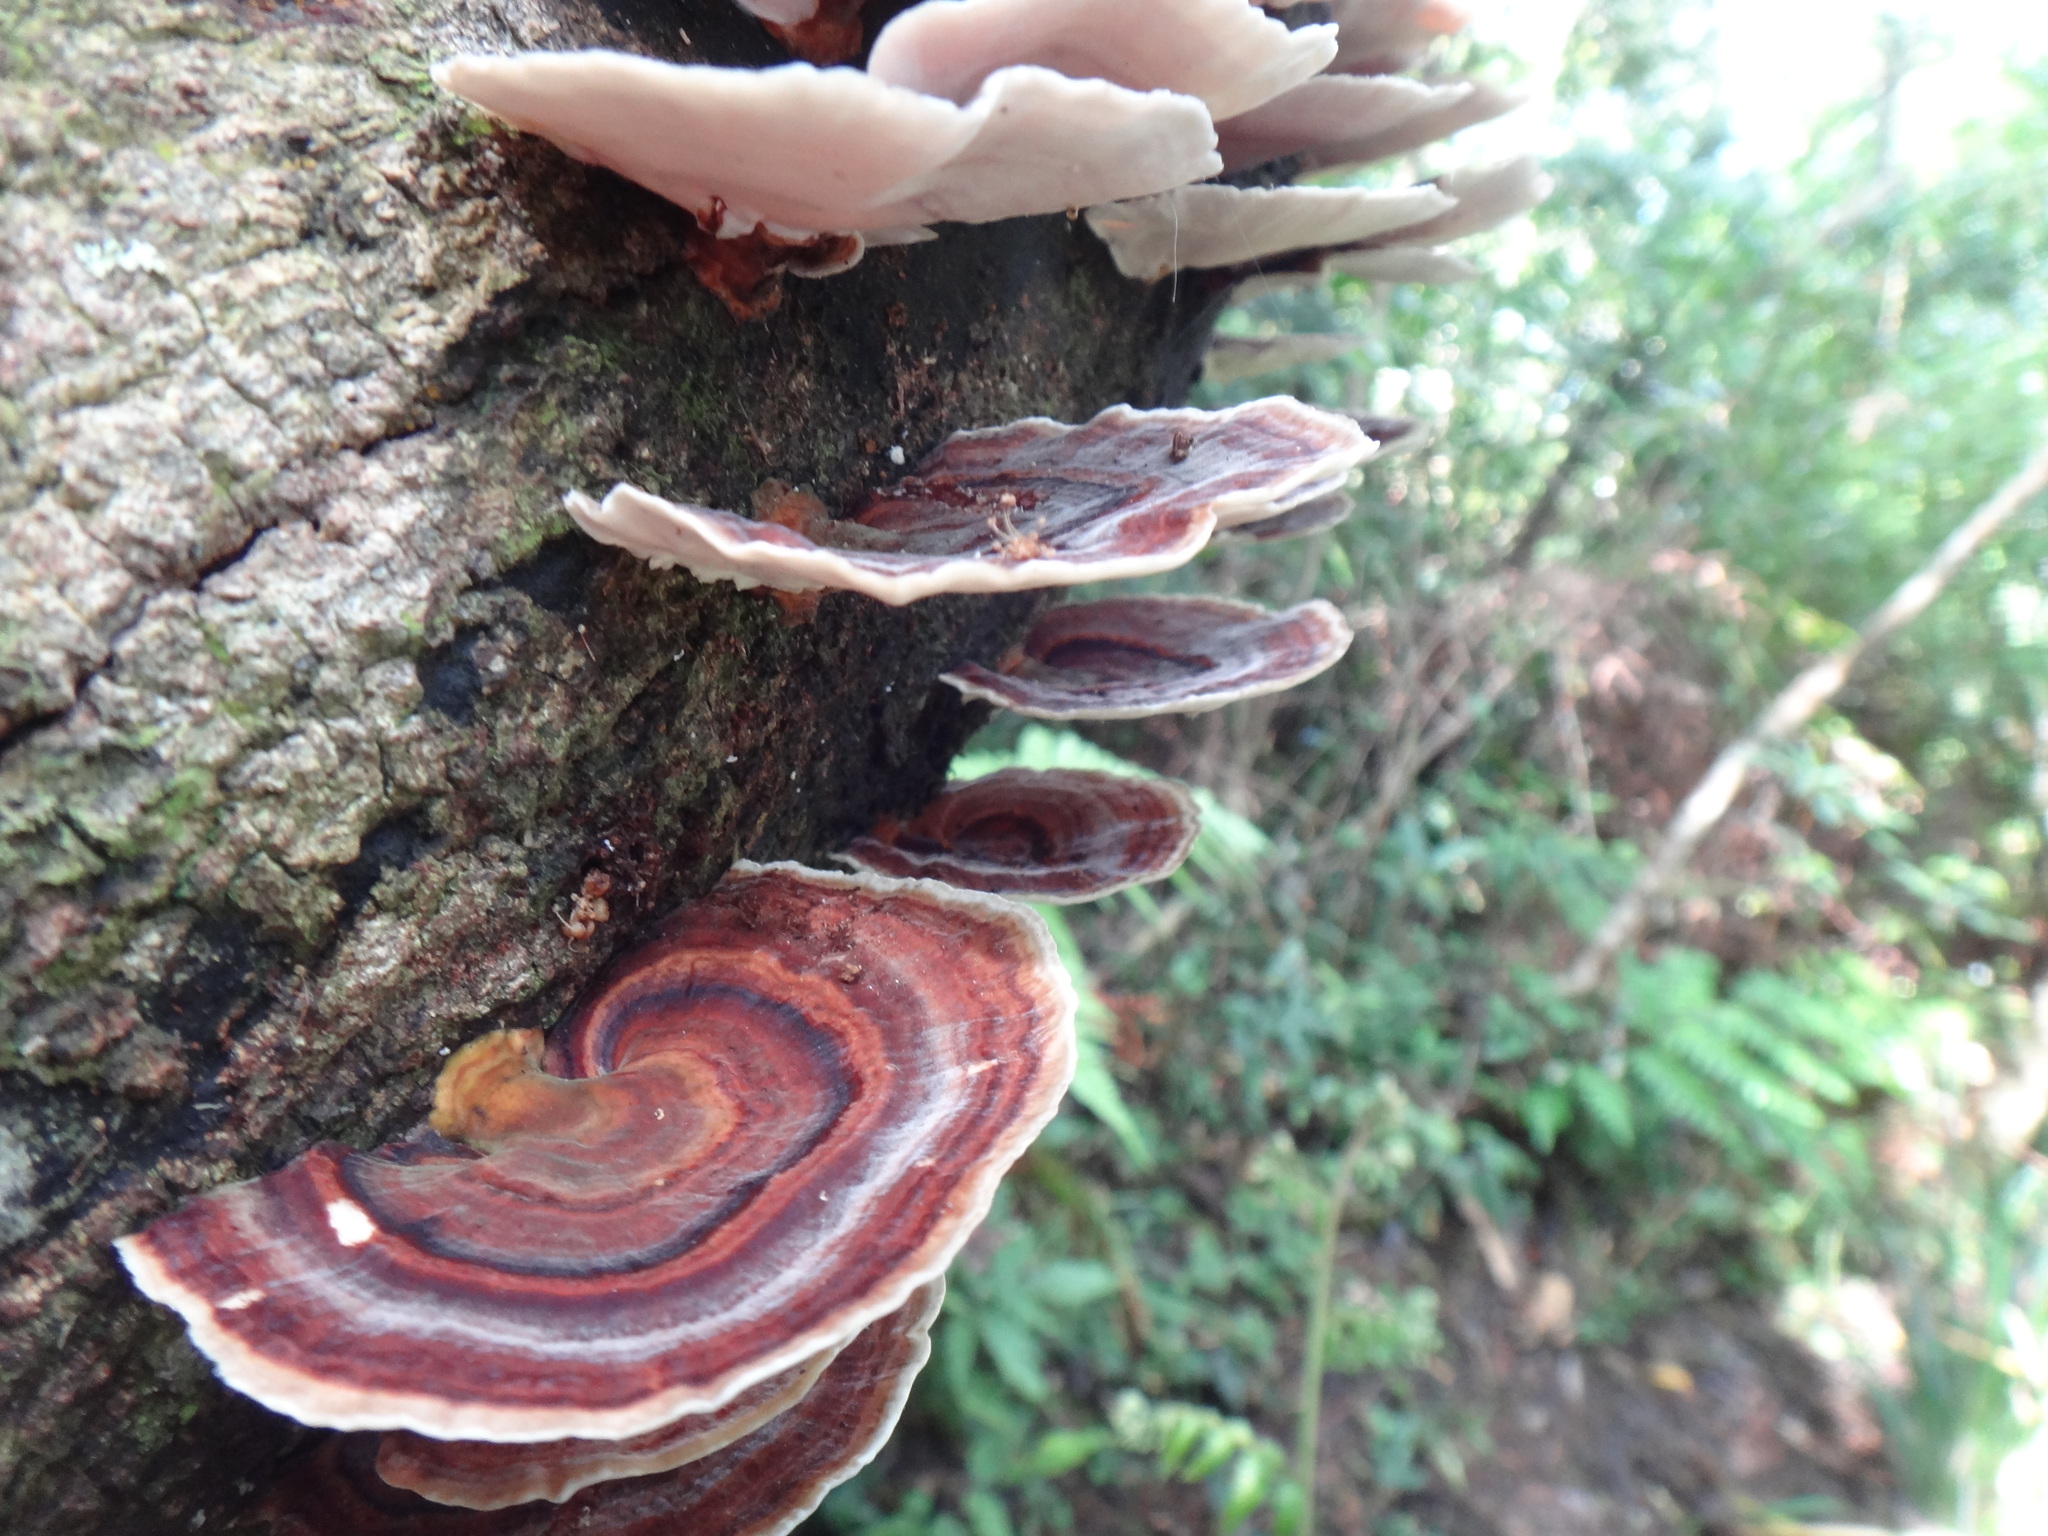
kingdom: Fungi
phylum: Basidiomycota
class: Agaricomycetes
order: Polyporales
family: Polyporaceae
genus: Microporus
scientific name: Microporus affinis
